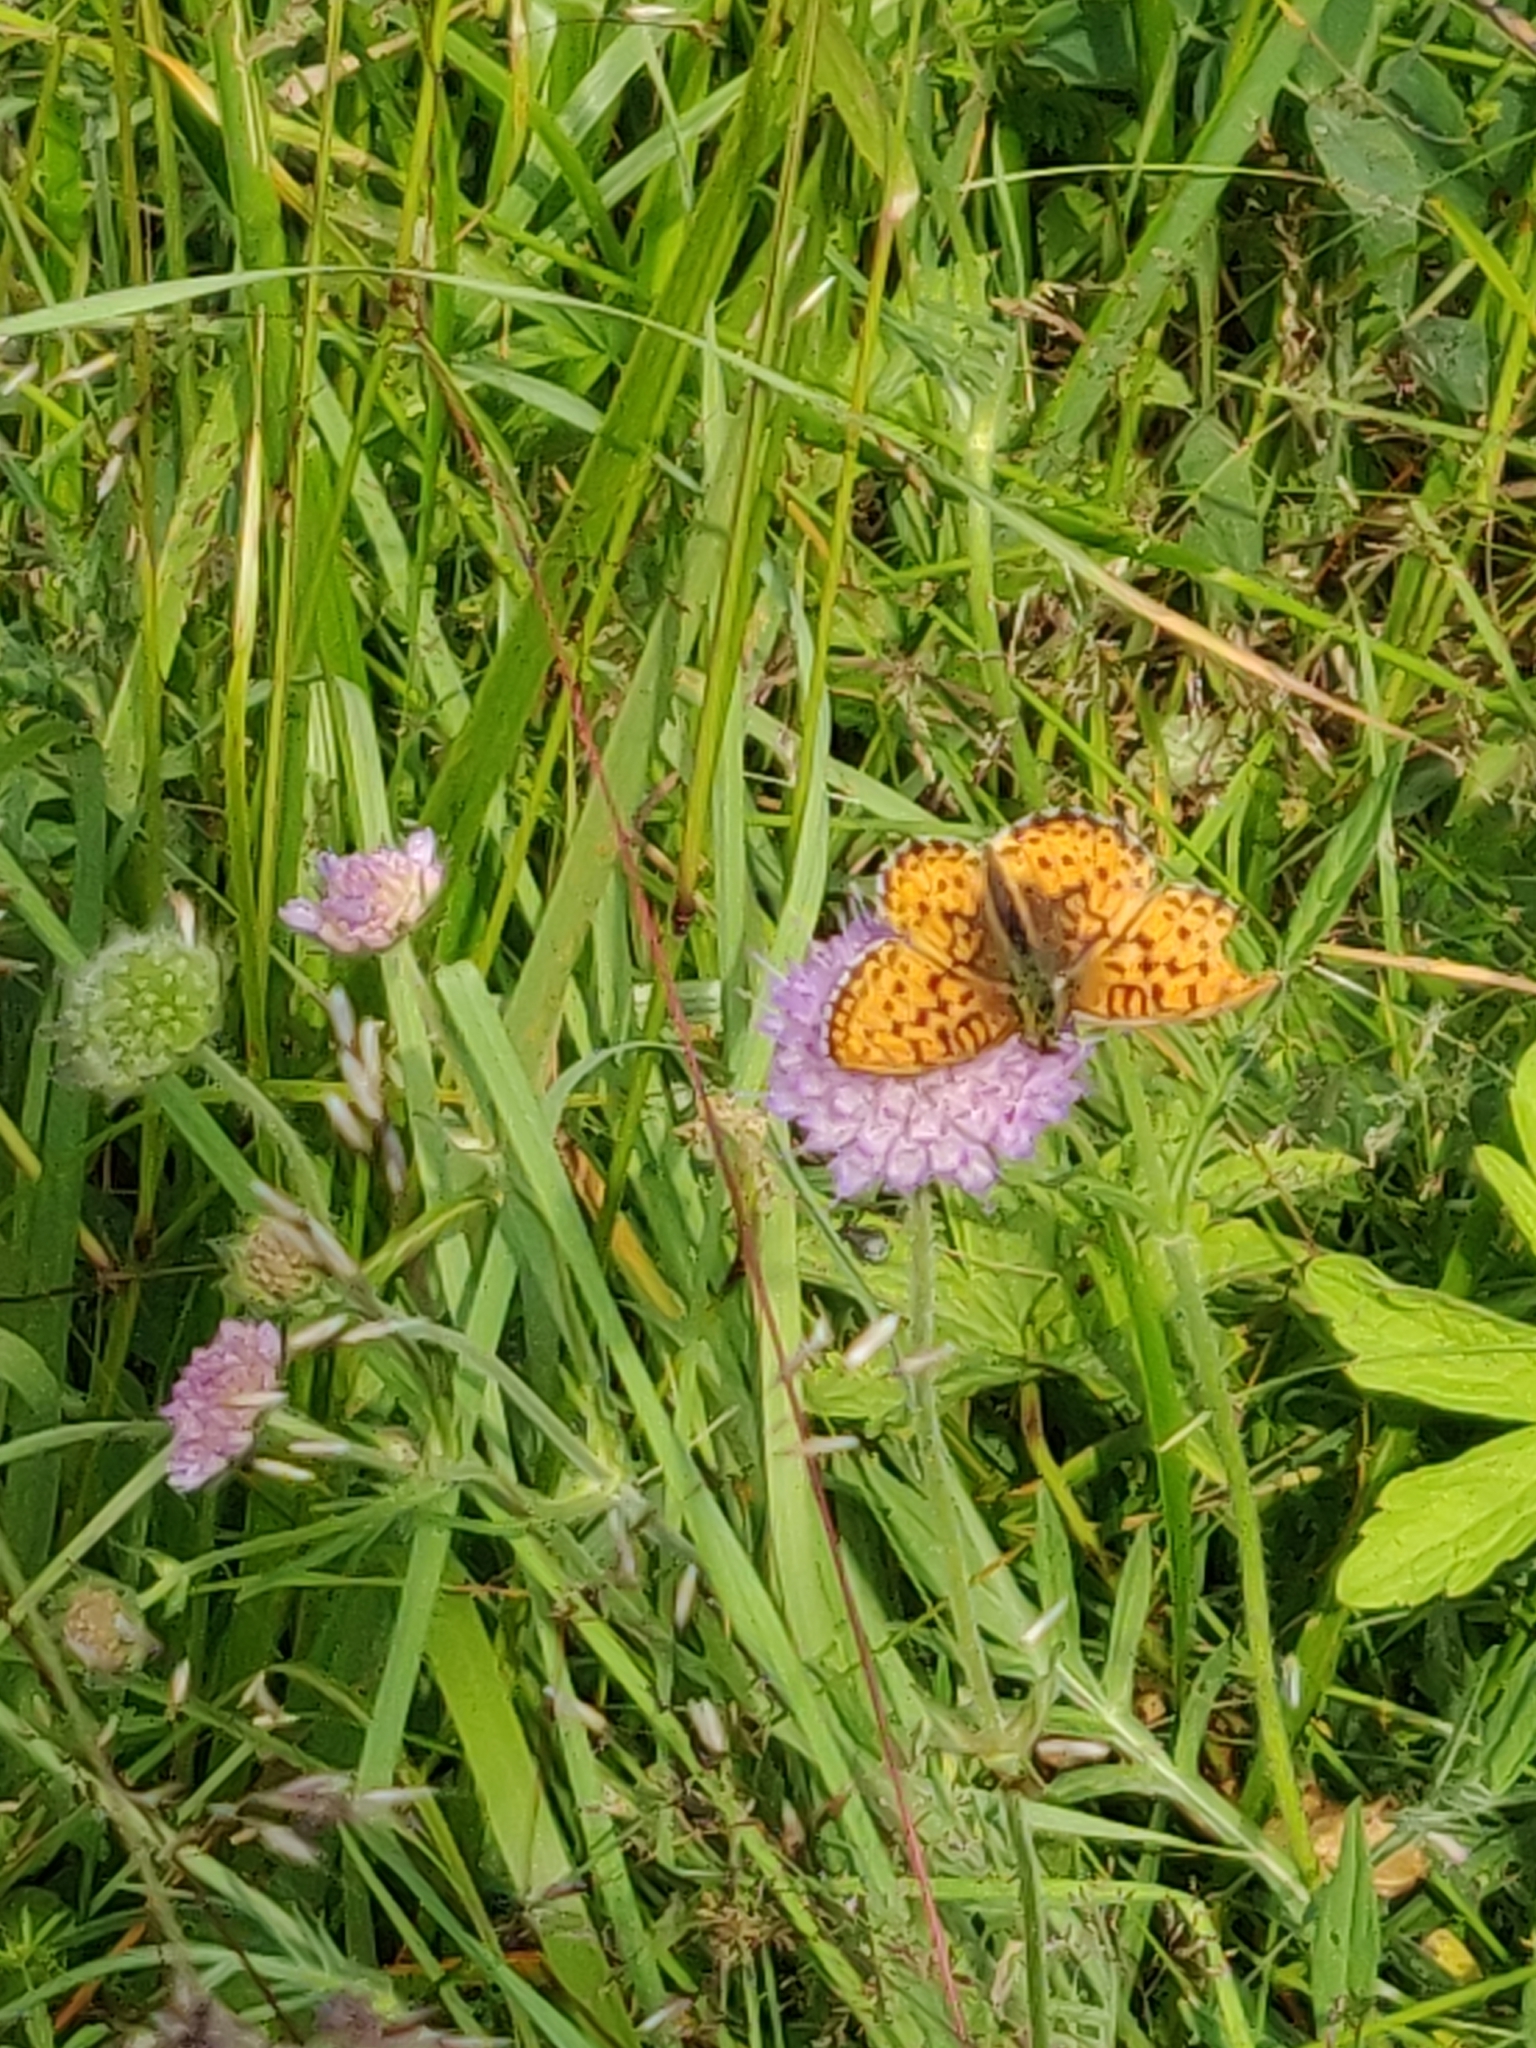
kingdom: Animalia
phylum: Arthropoda
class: Insecta
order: Lepidoptera
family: Nymphalidae
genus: Brenthis
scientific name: Brenthis ino
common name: Lesser marbled fritillary
